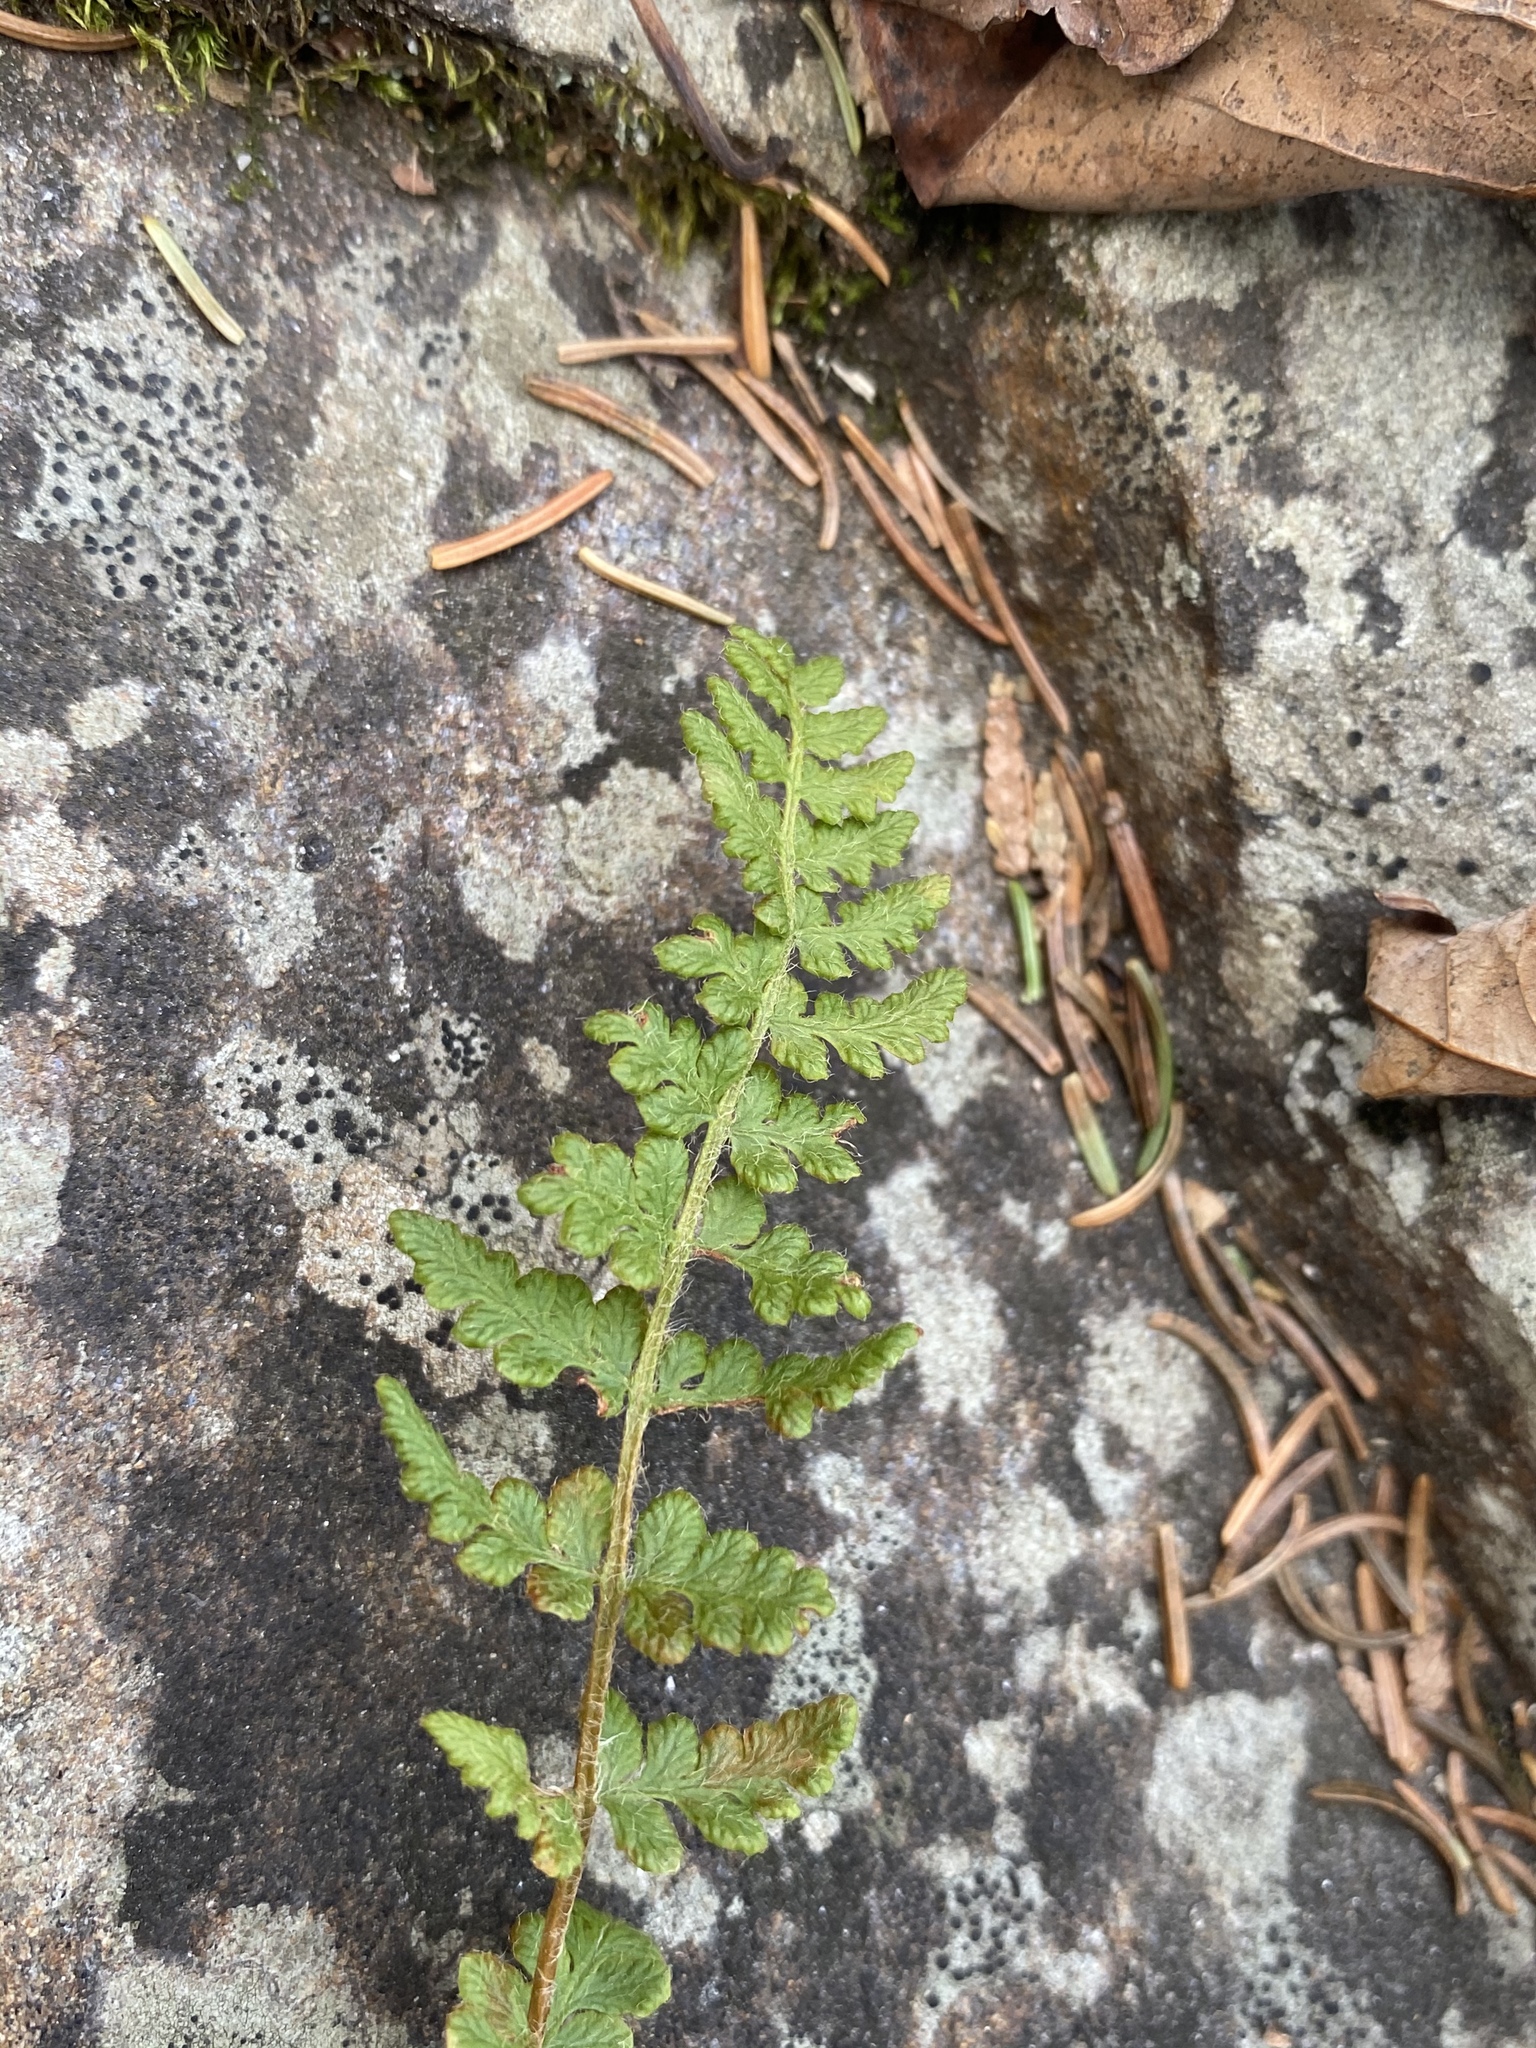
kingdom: Plantae
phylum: Tracheophyta
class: Polypodiopsida
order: Polypodiales
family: Woodsiaceae
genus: Woodsia
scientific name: Woodsia ilvensis
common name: Fragrant woodsia
